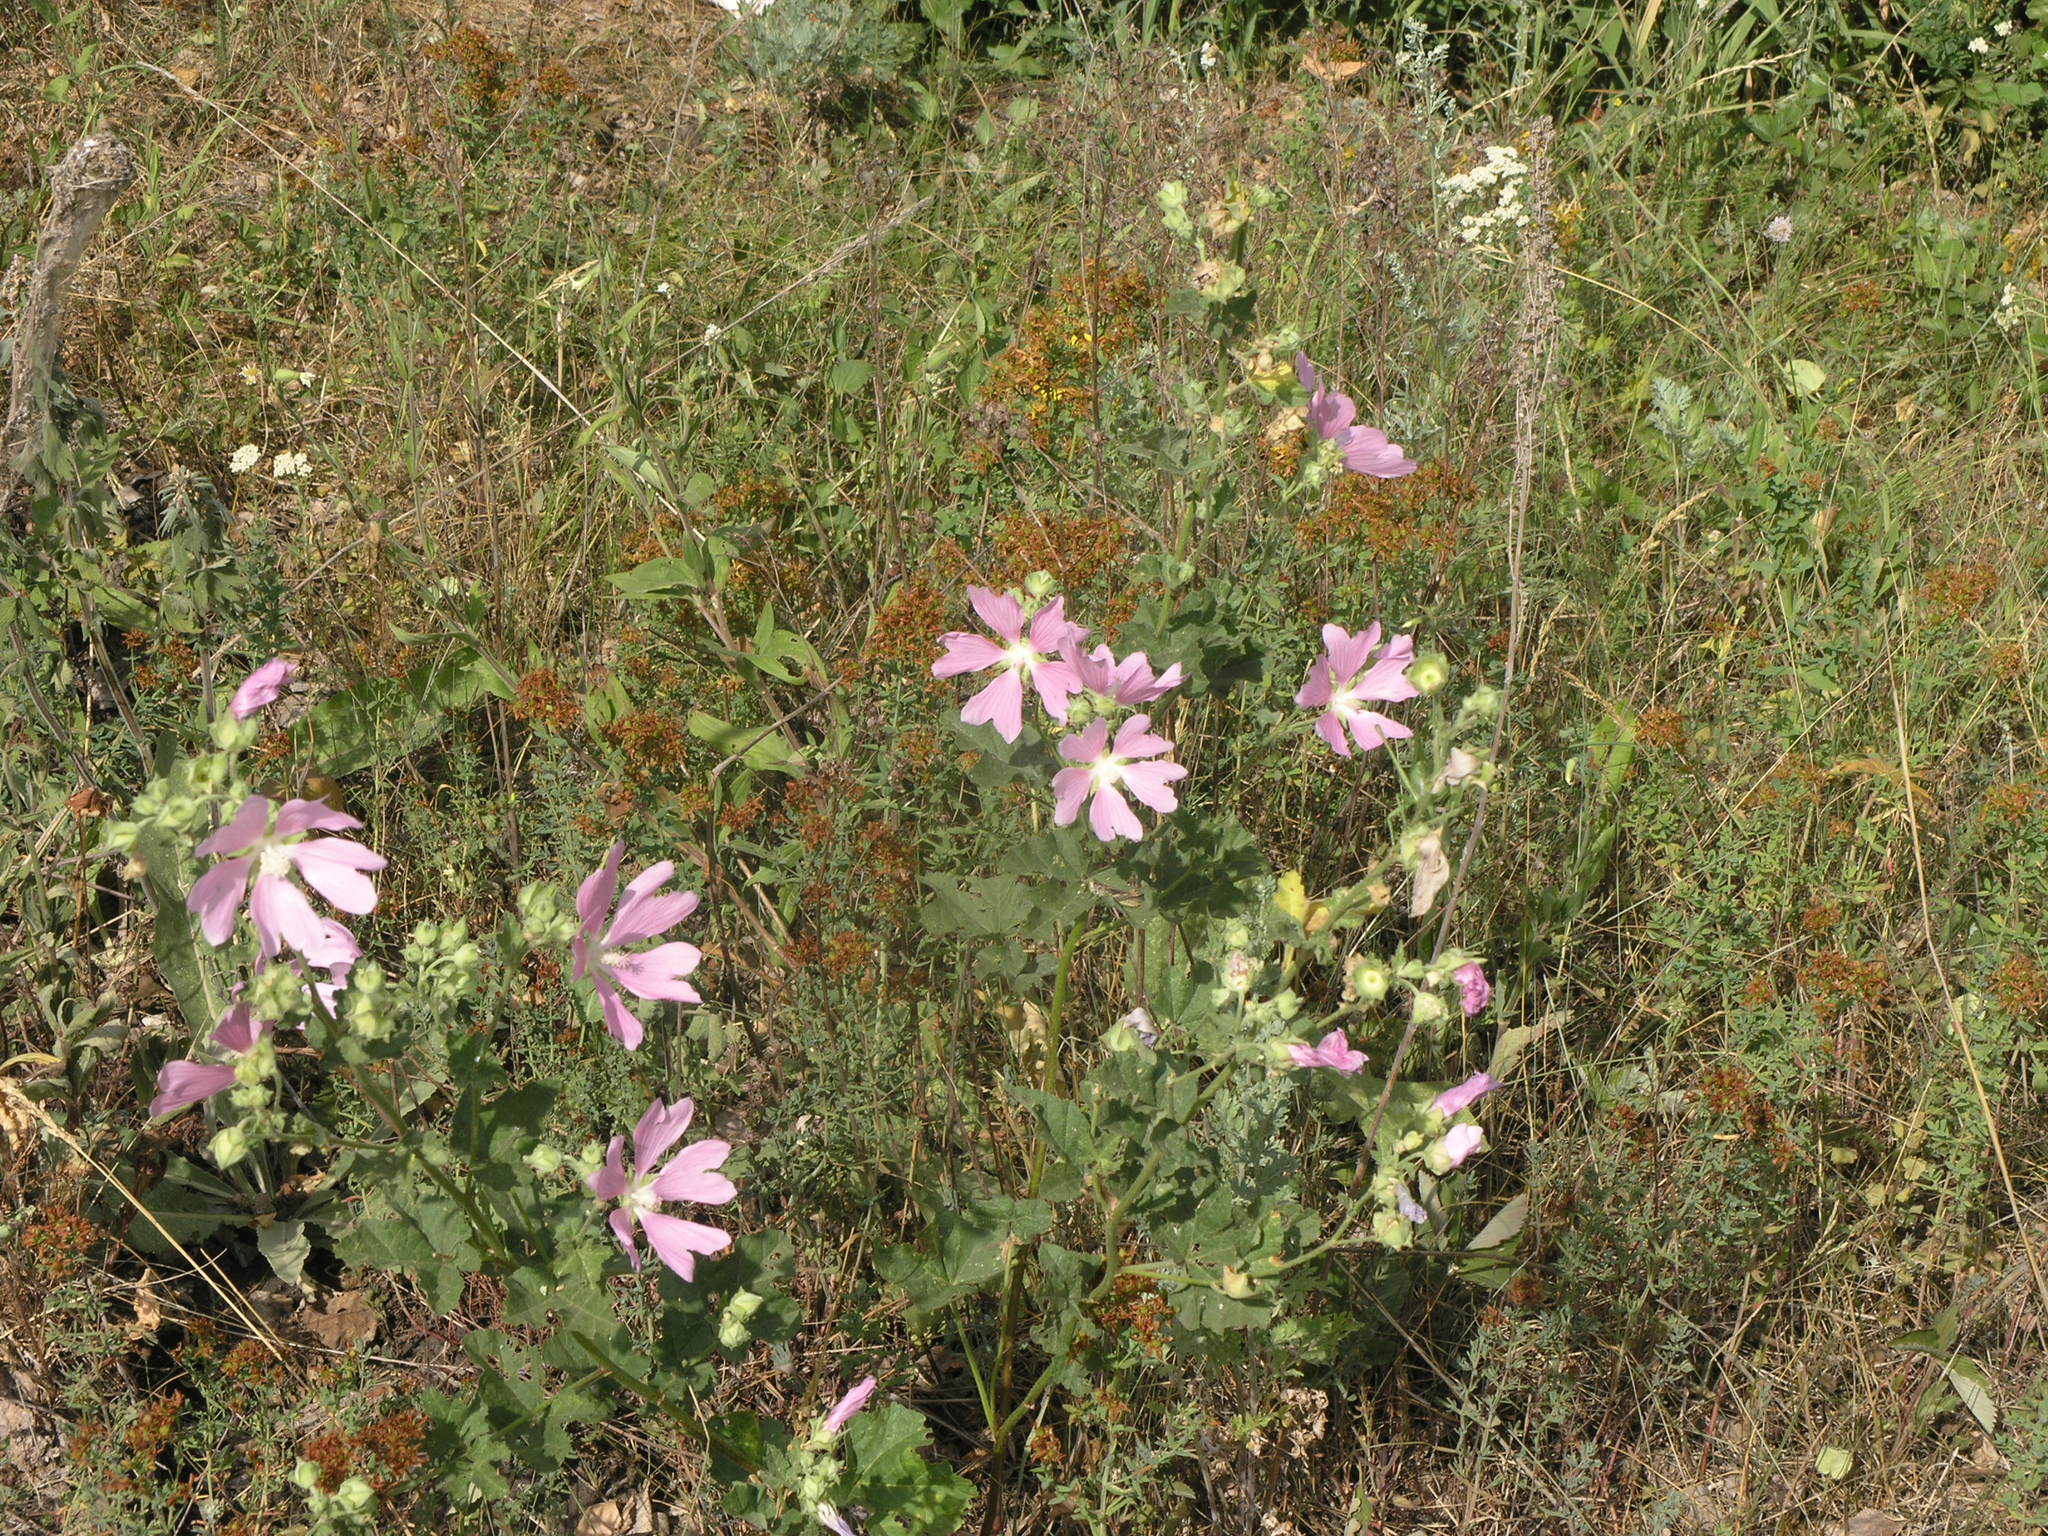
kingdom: Plantae
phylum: Tracheophyta
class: Magnoliopsida
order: Malvales
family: Malvaceae
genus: Malva
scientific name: Malva thuringiaca
